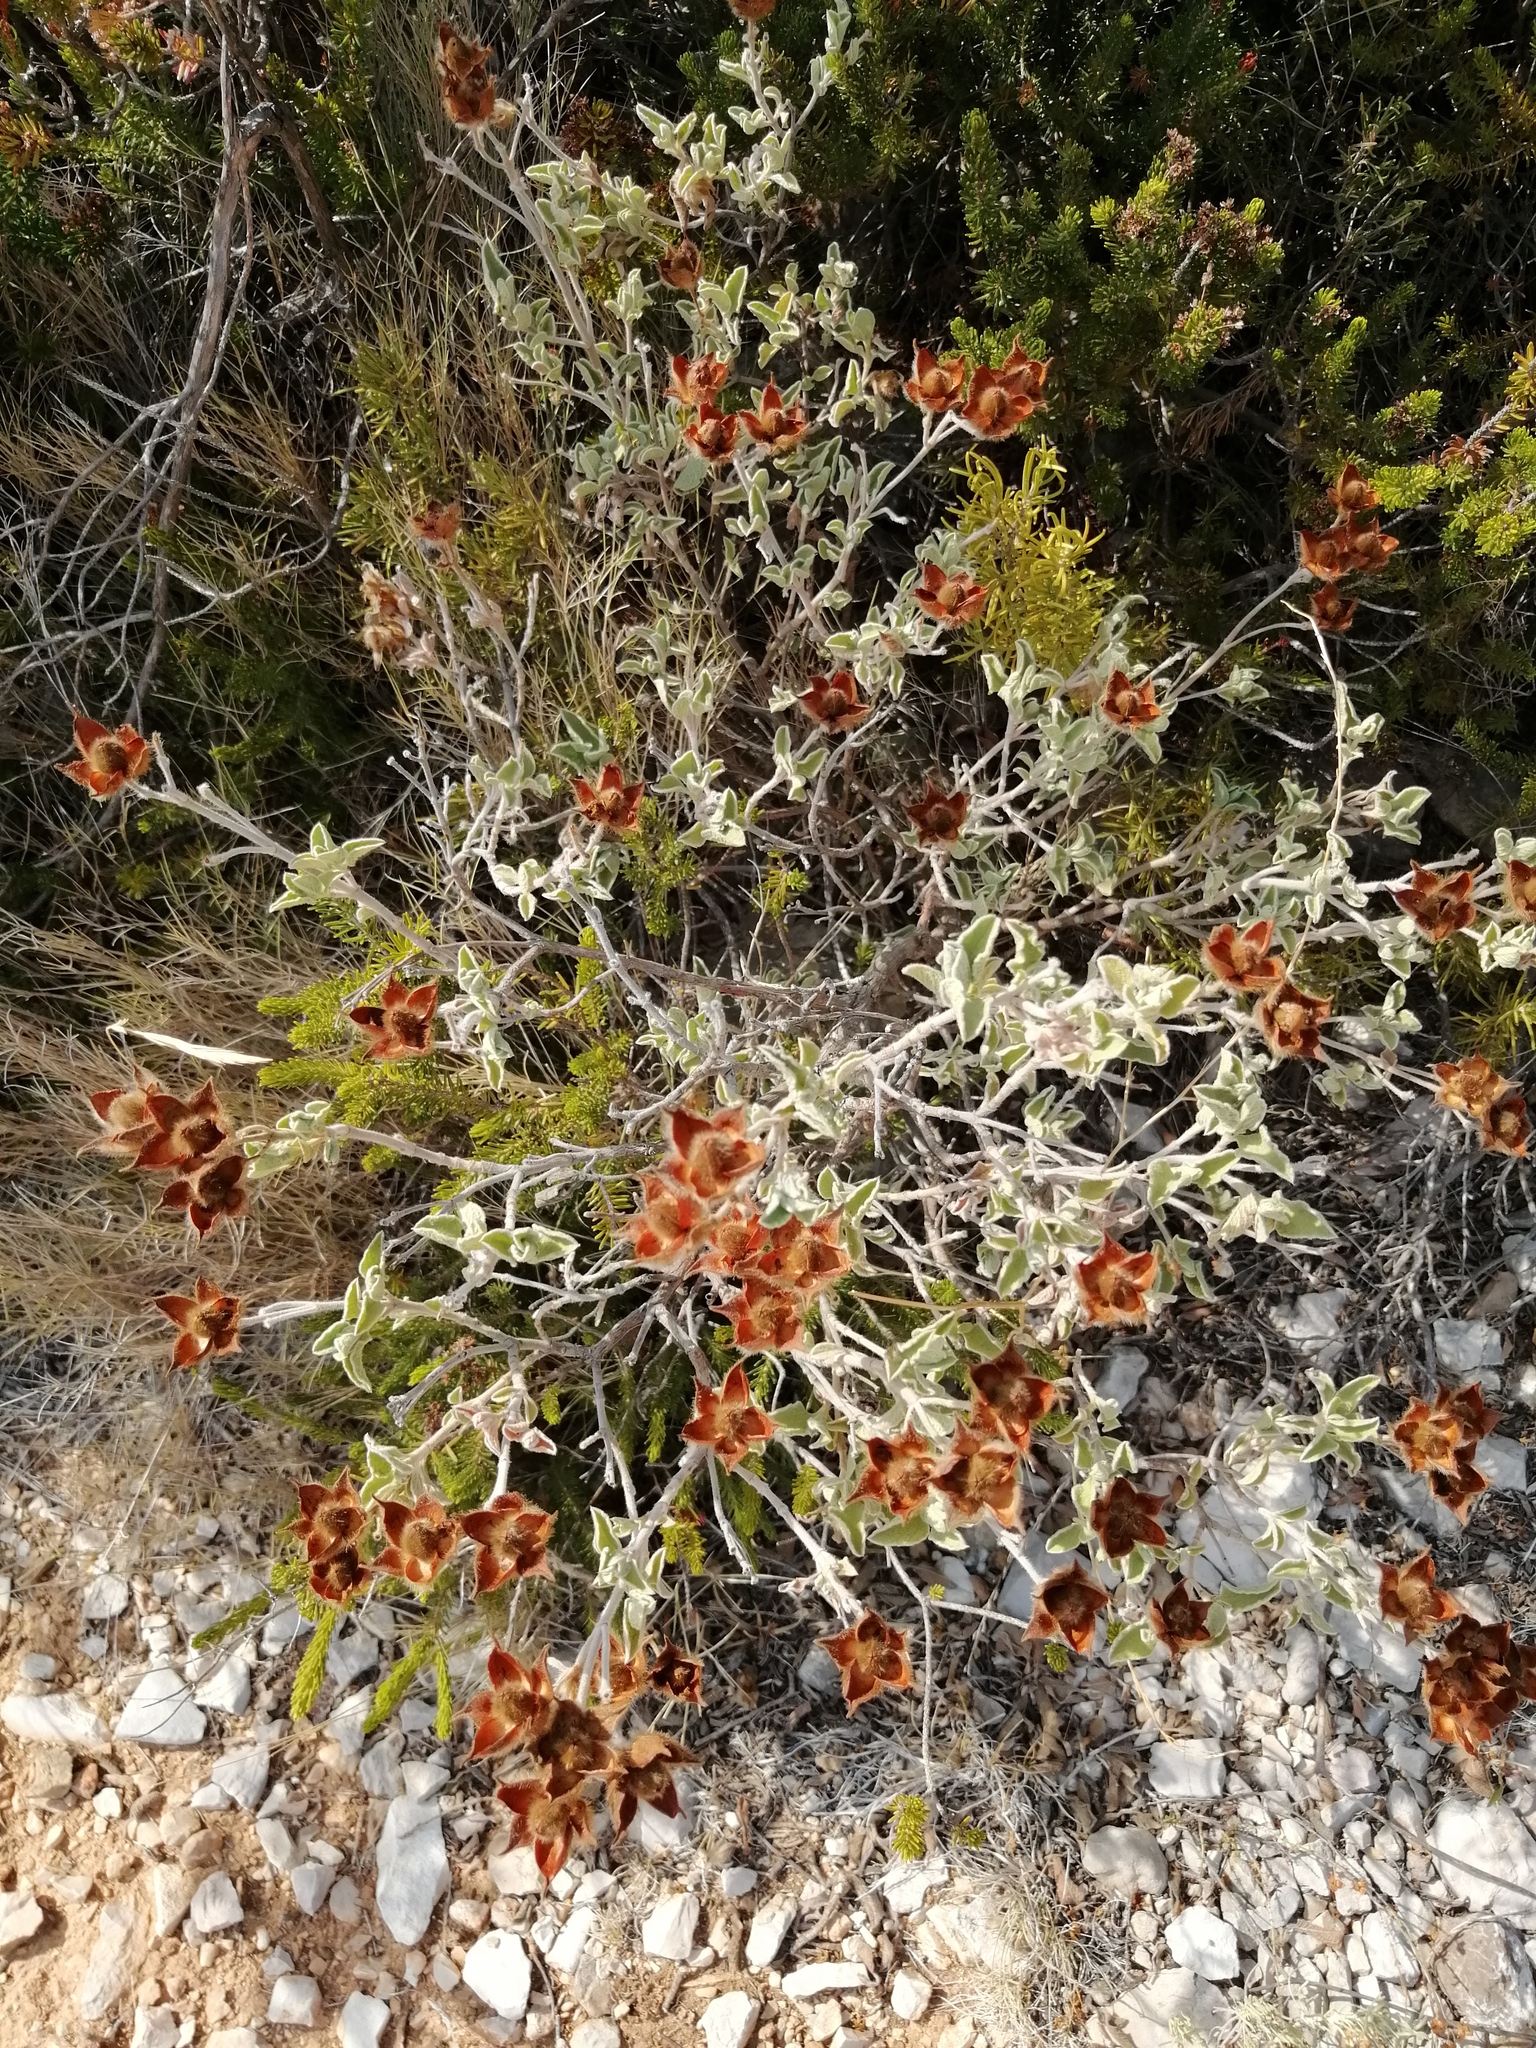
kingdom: Plantae
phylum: Tracheophyta
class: Magnoliopsida
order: Malvales
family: Cistaceae
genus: Cistus
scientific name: Cistus creticus
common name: Cretan rockrose
